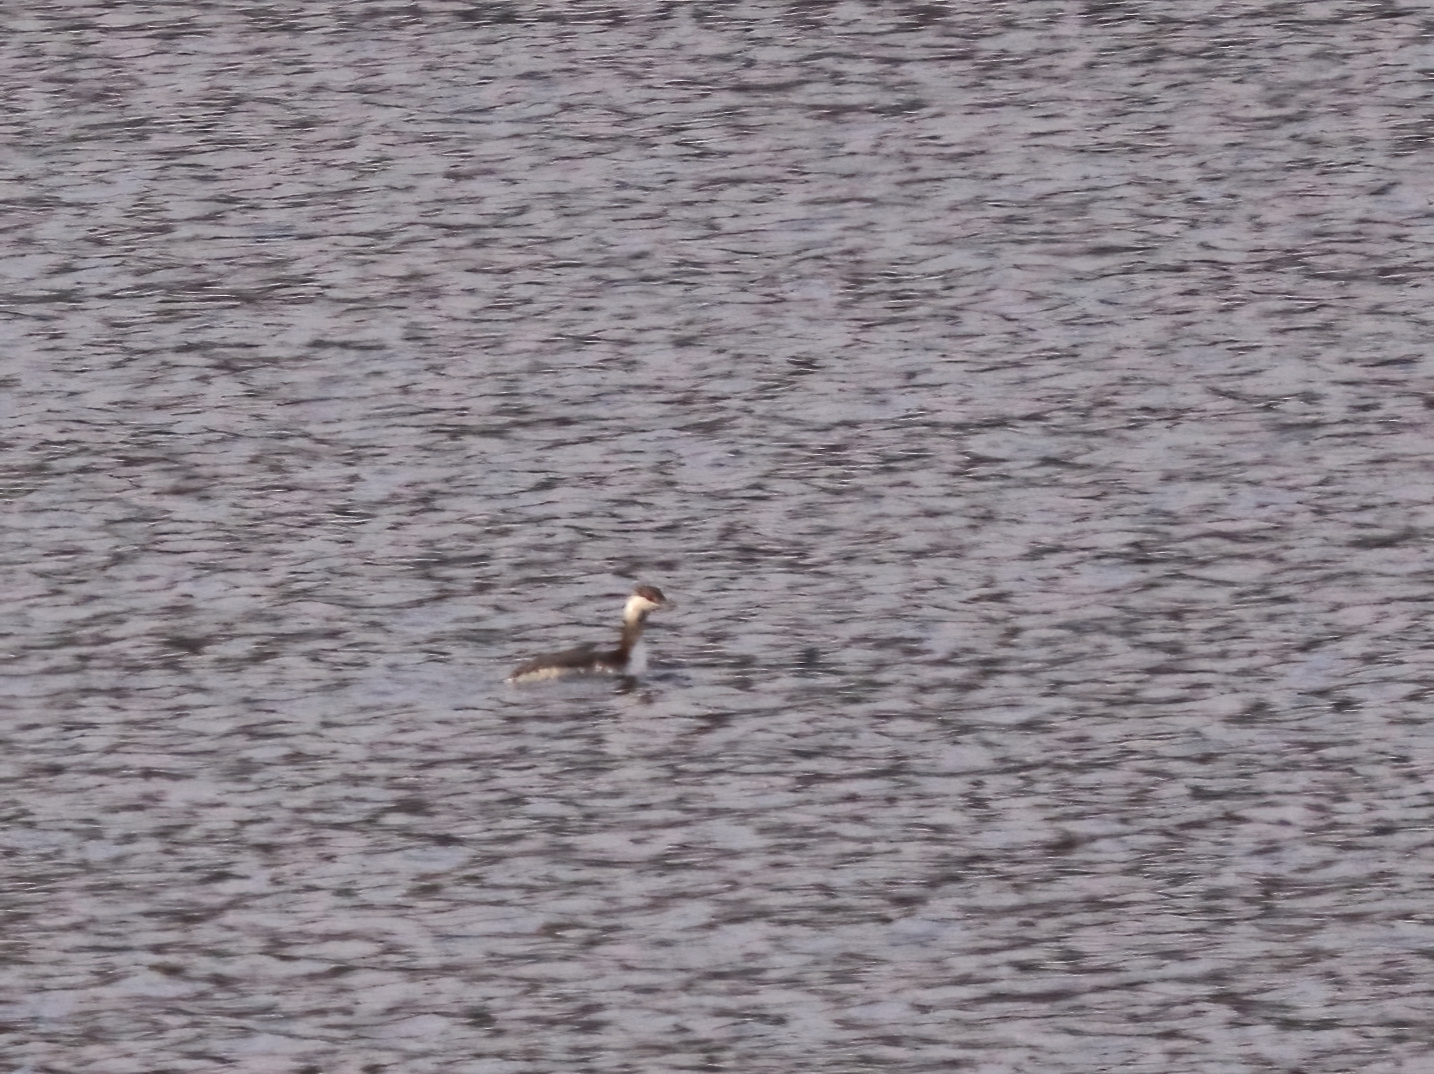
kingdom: Animalia
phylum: Chordata
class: Aves
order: Podicipediformes
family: Podicipedidae
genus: Podiceps
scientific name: Podiceps auritus
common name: Horned grebe
